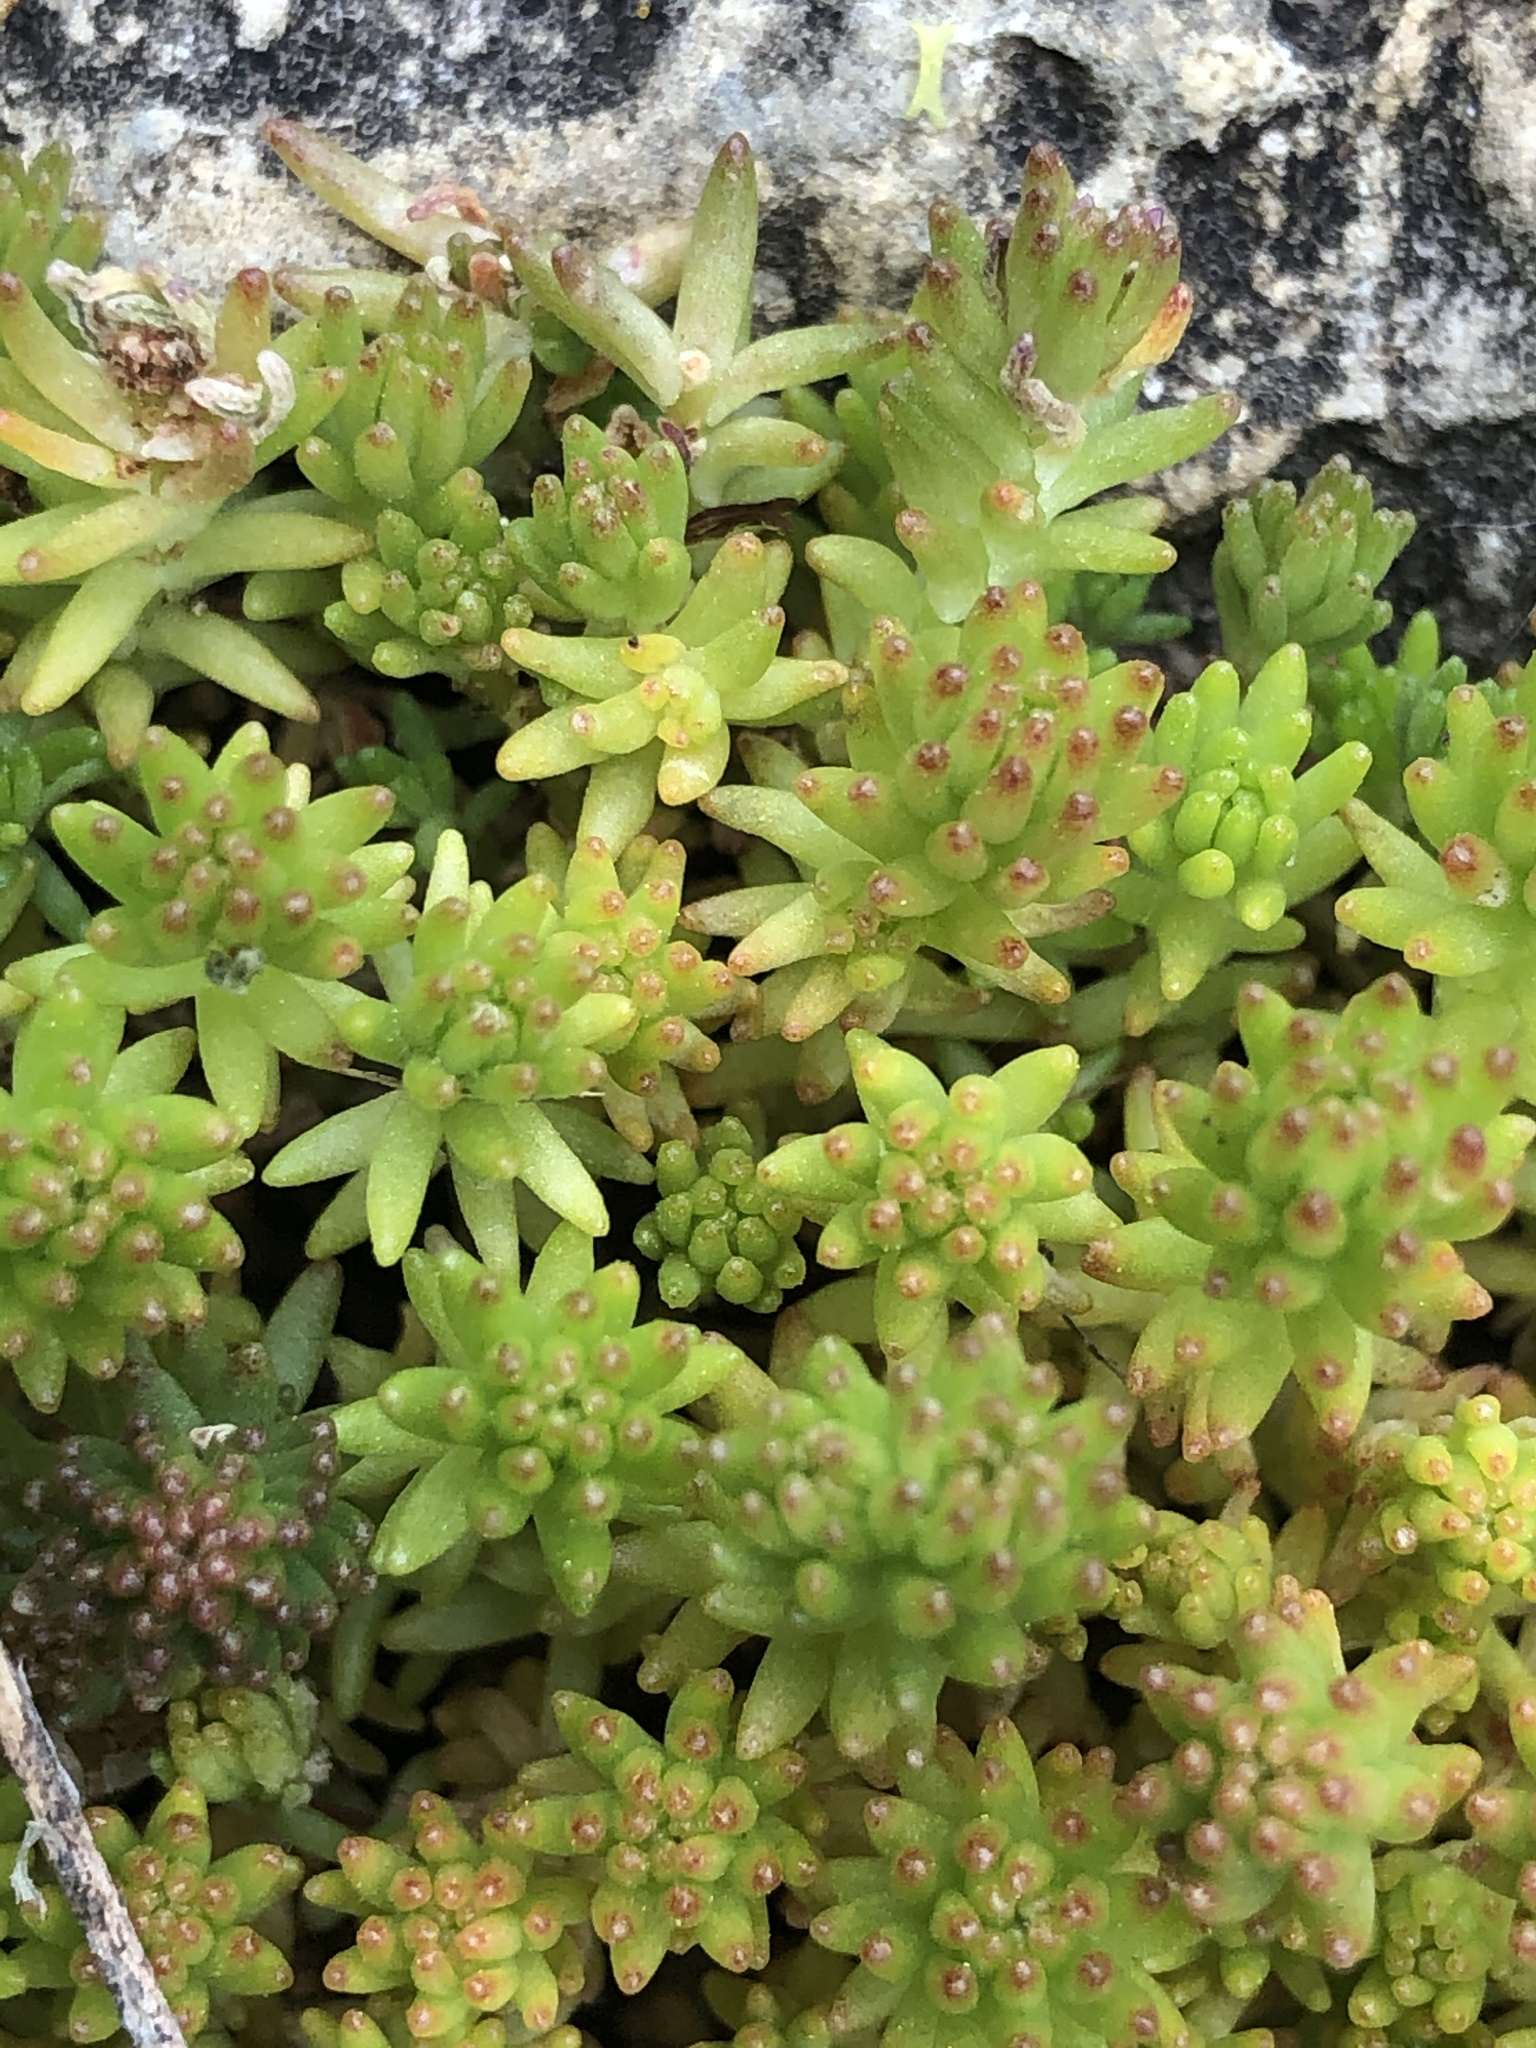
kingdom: Plantae
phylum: Tracheophyta
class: Magnoliopsida
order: Saxifragales
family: Crassulaceae
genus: Sedum
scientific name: Sedum sexangulare
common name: Tasteless stonecrop
